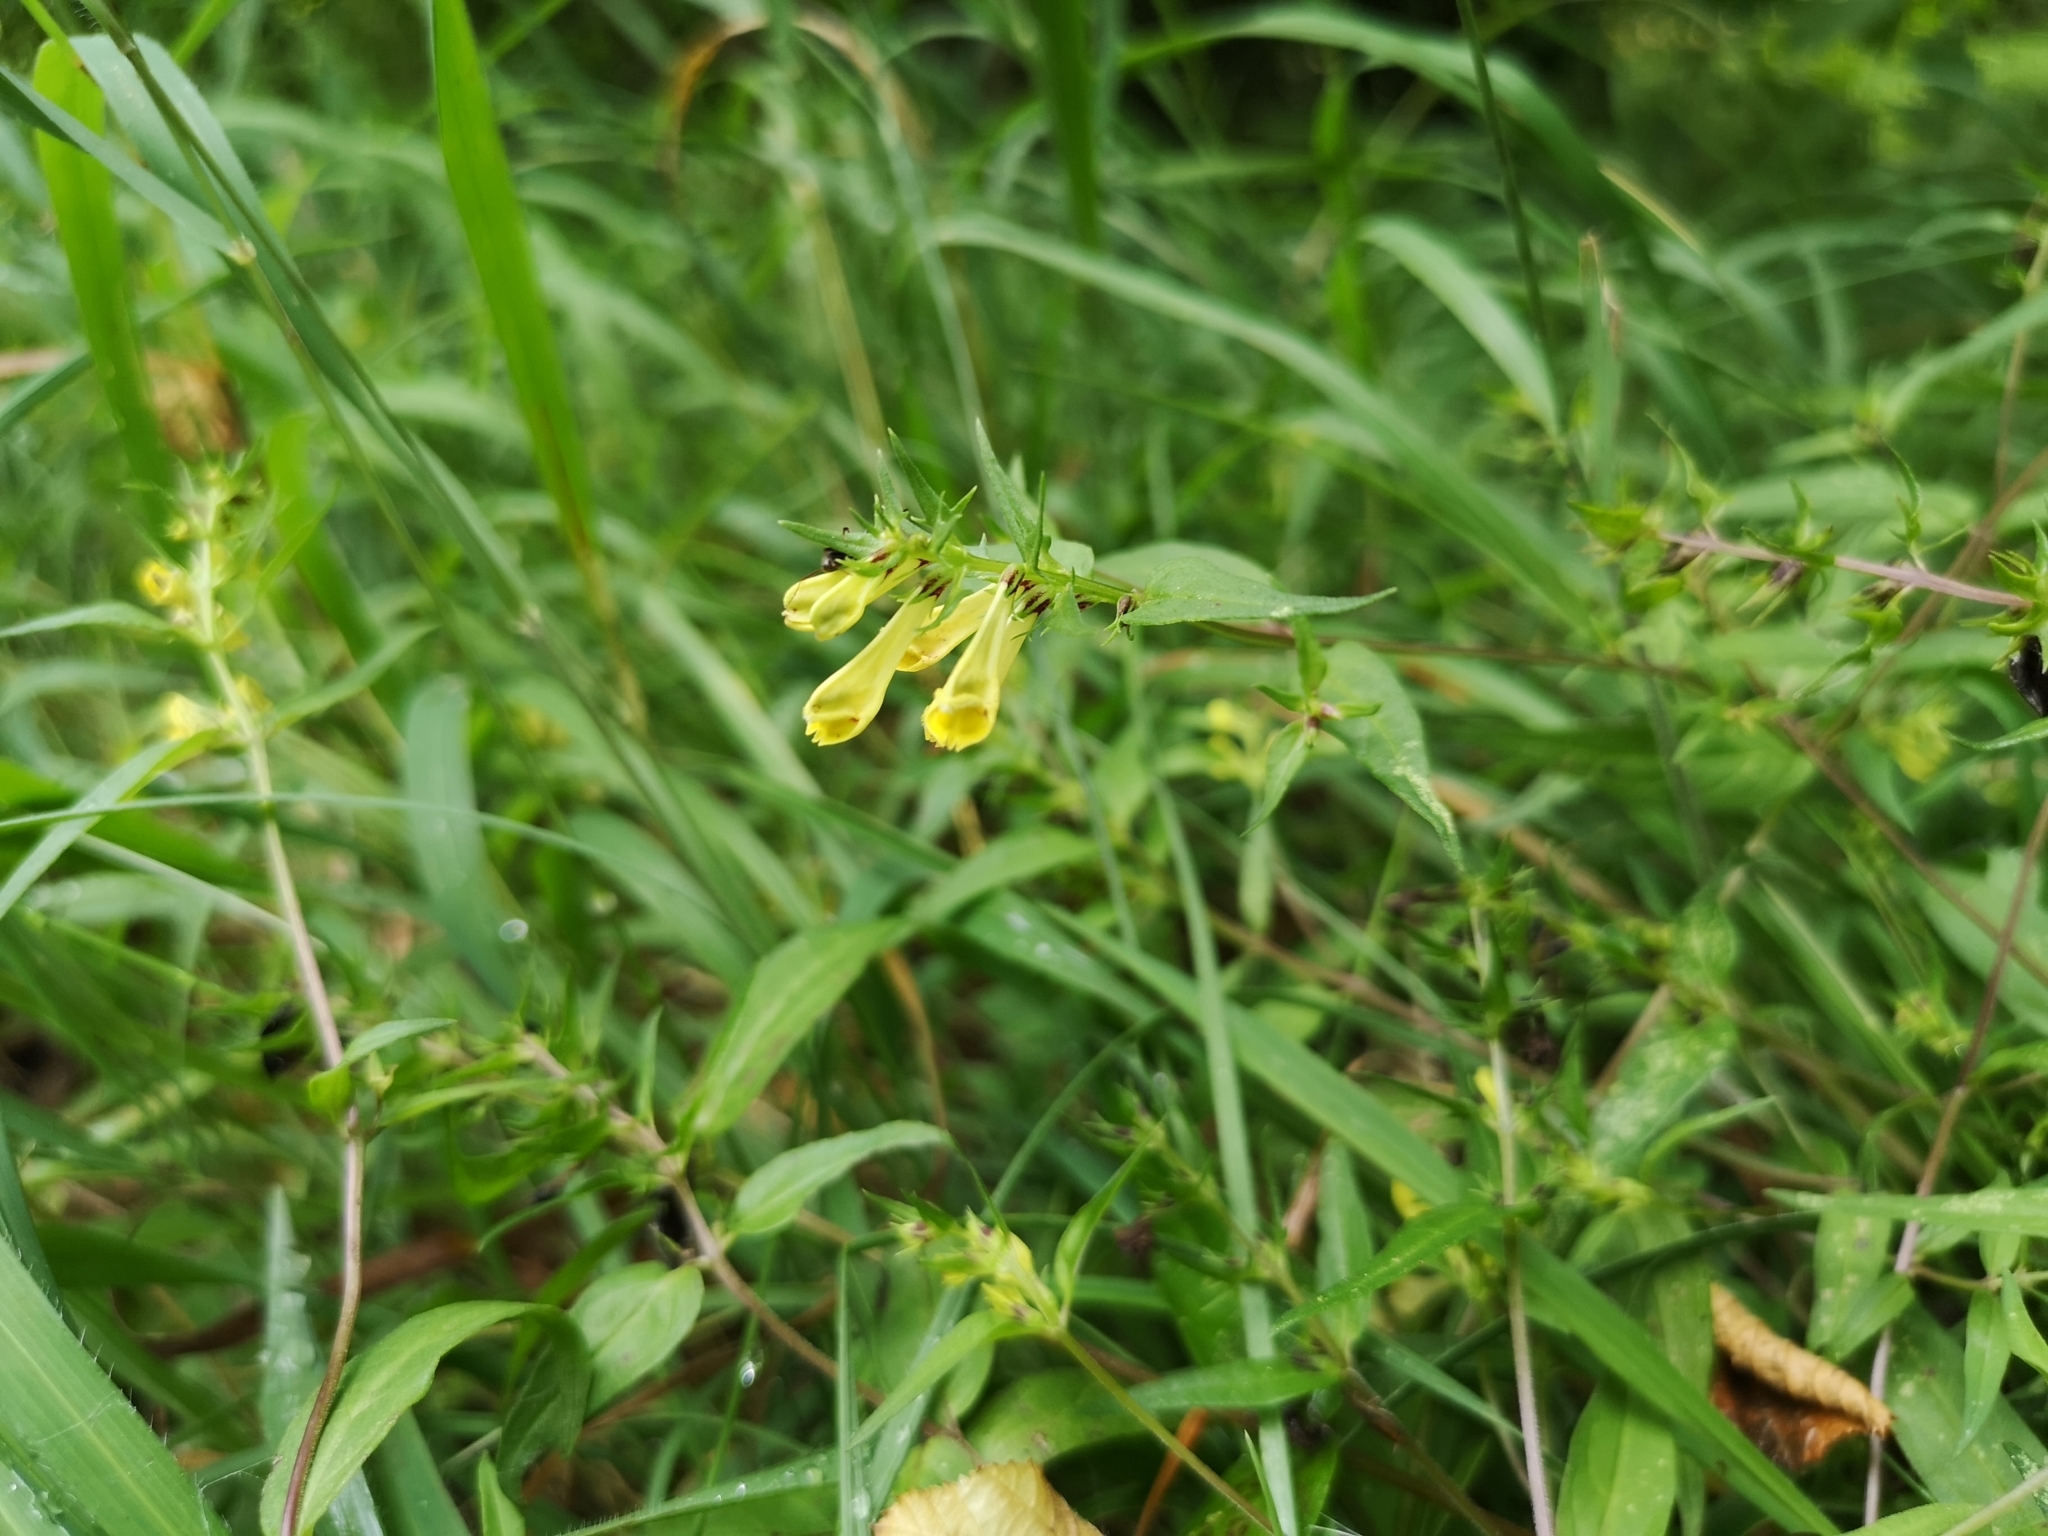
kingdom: Plantae
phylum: Tracheophyta
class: Magnoliopsida
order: Lamiales
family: Orobanchaceae
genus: Melampyrum
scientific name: Melampyrum pratense
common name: Common cow-wheat
